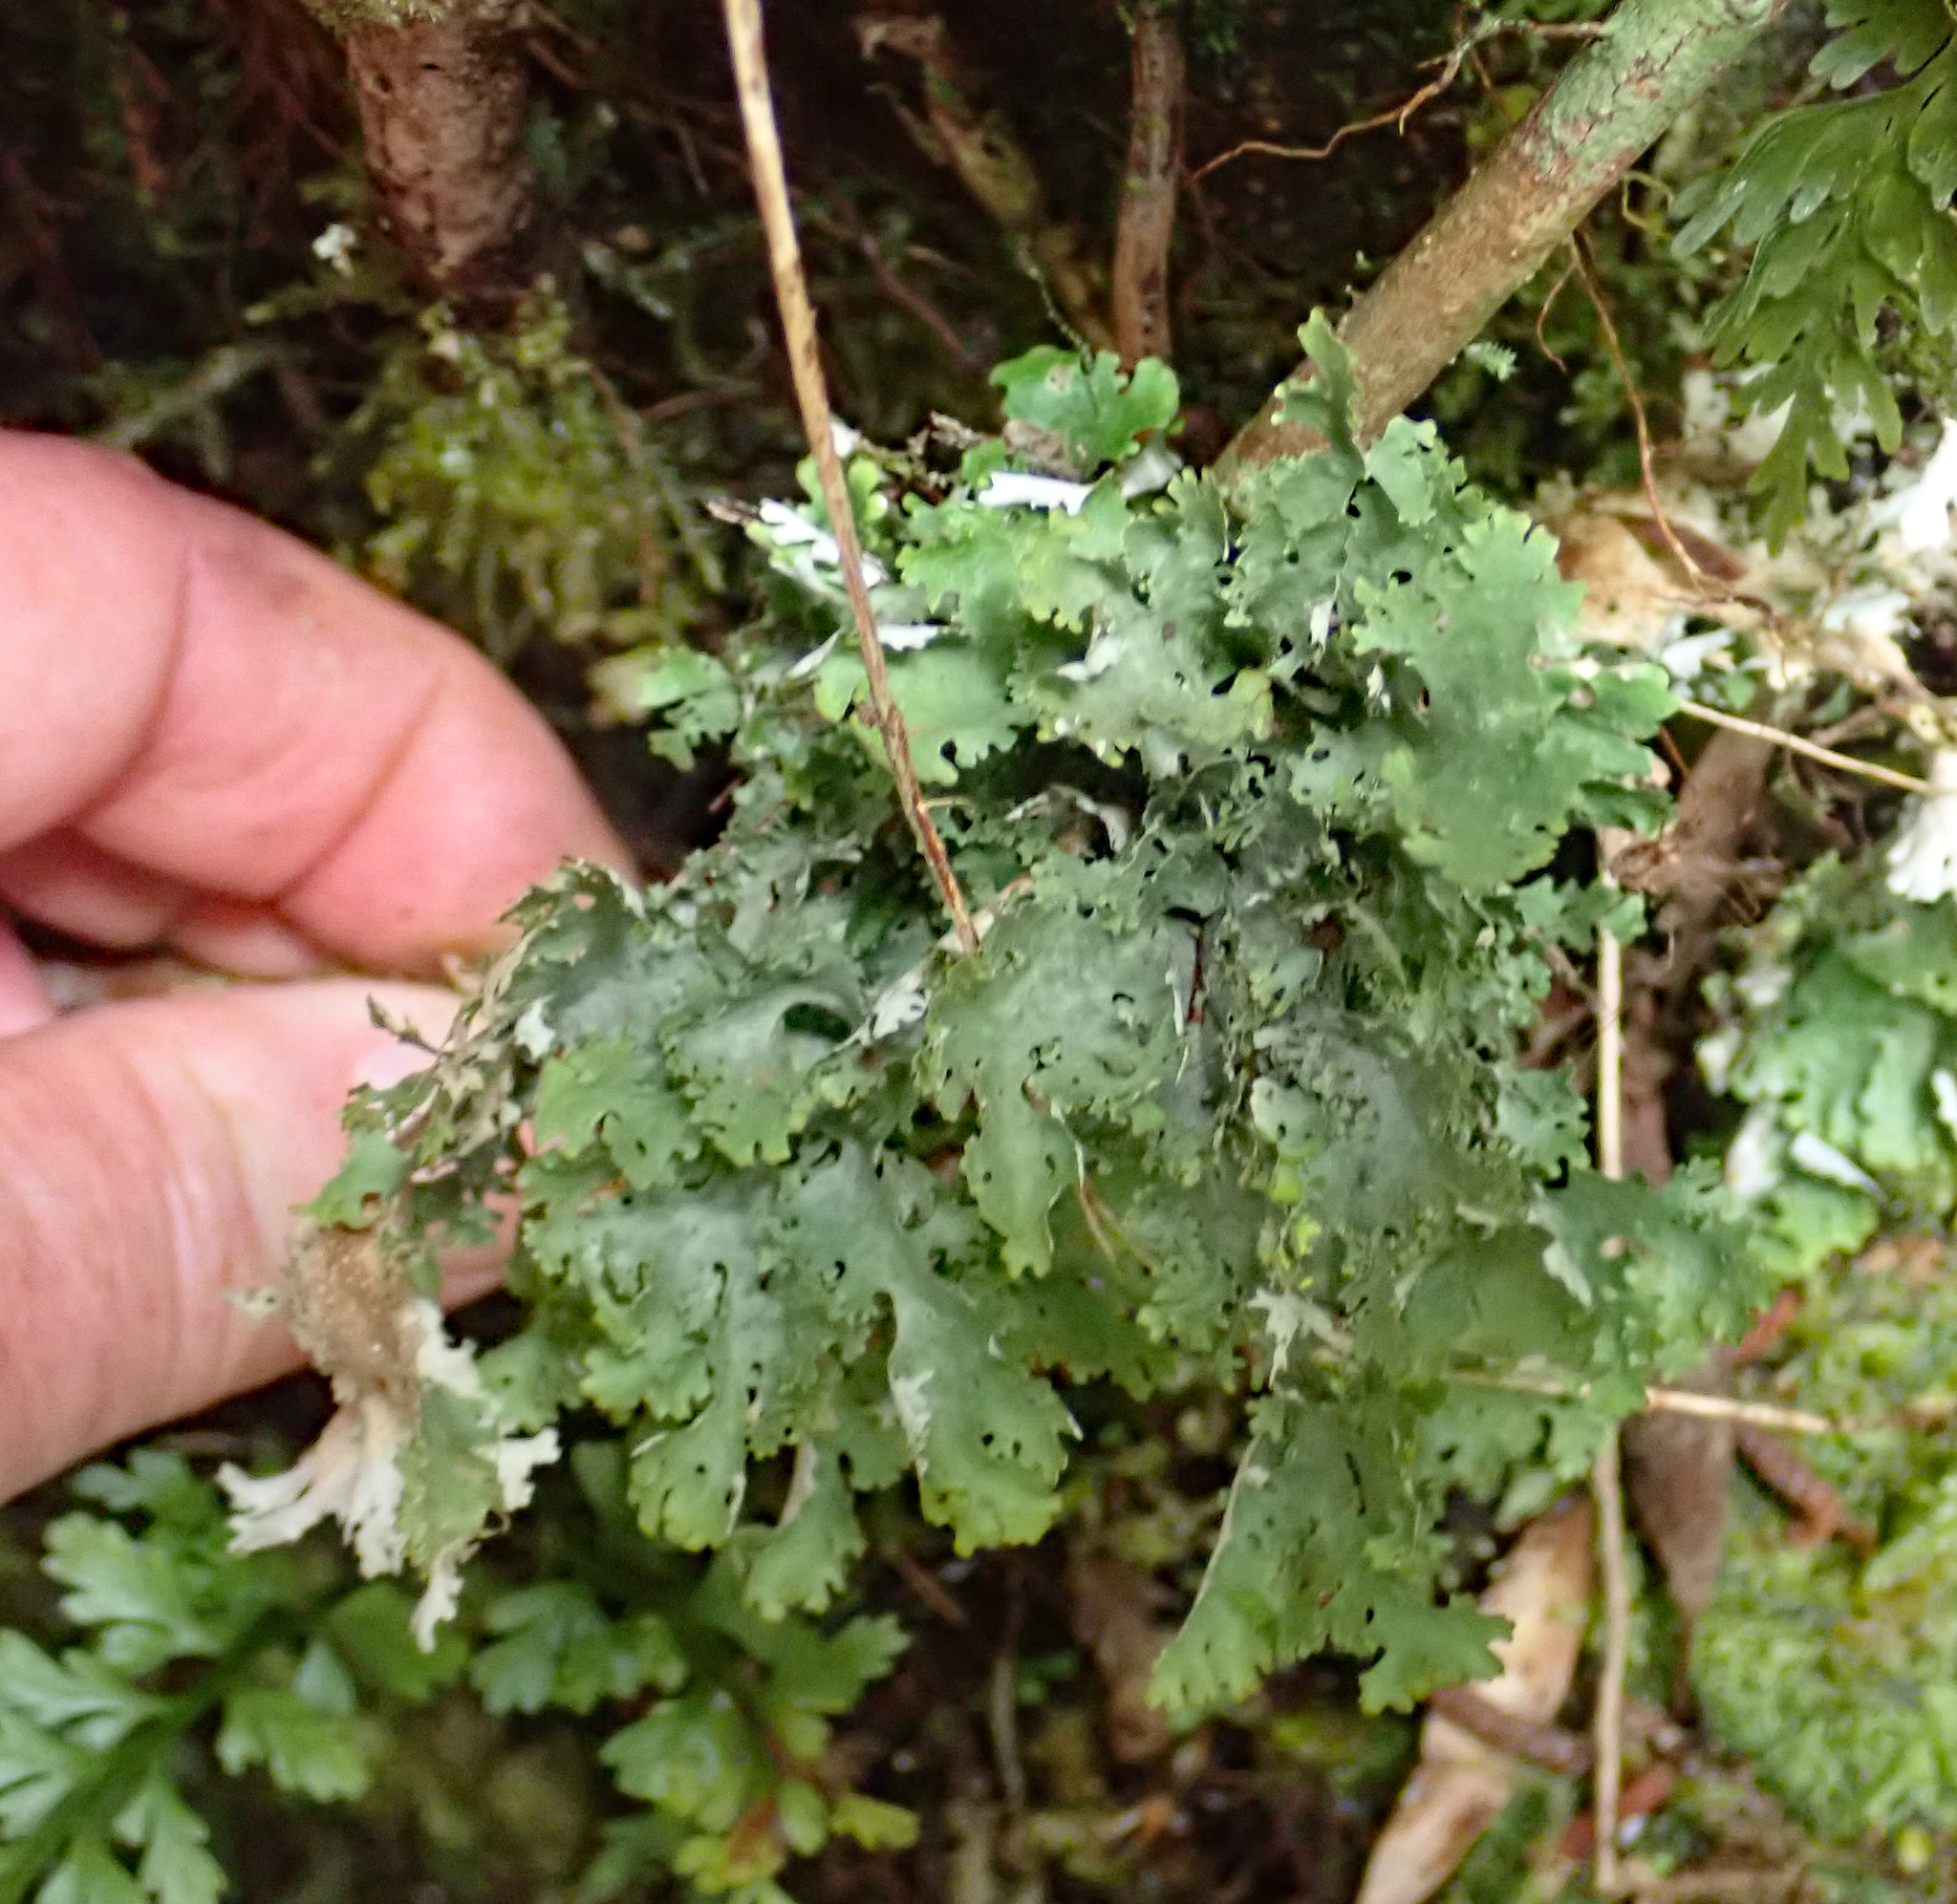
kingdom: Fungi
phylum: Ascomycota
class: Lecanoromycetes
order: Peltigerales
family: Lobariaceae
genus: Sticta
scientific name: Sticta filix
